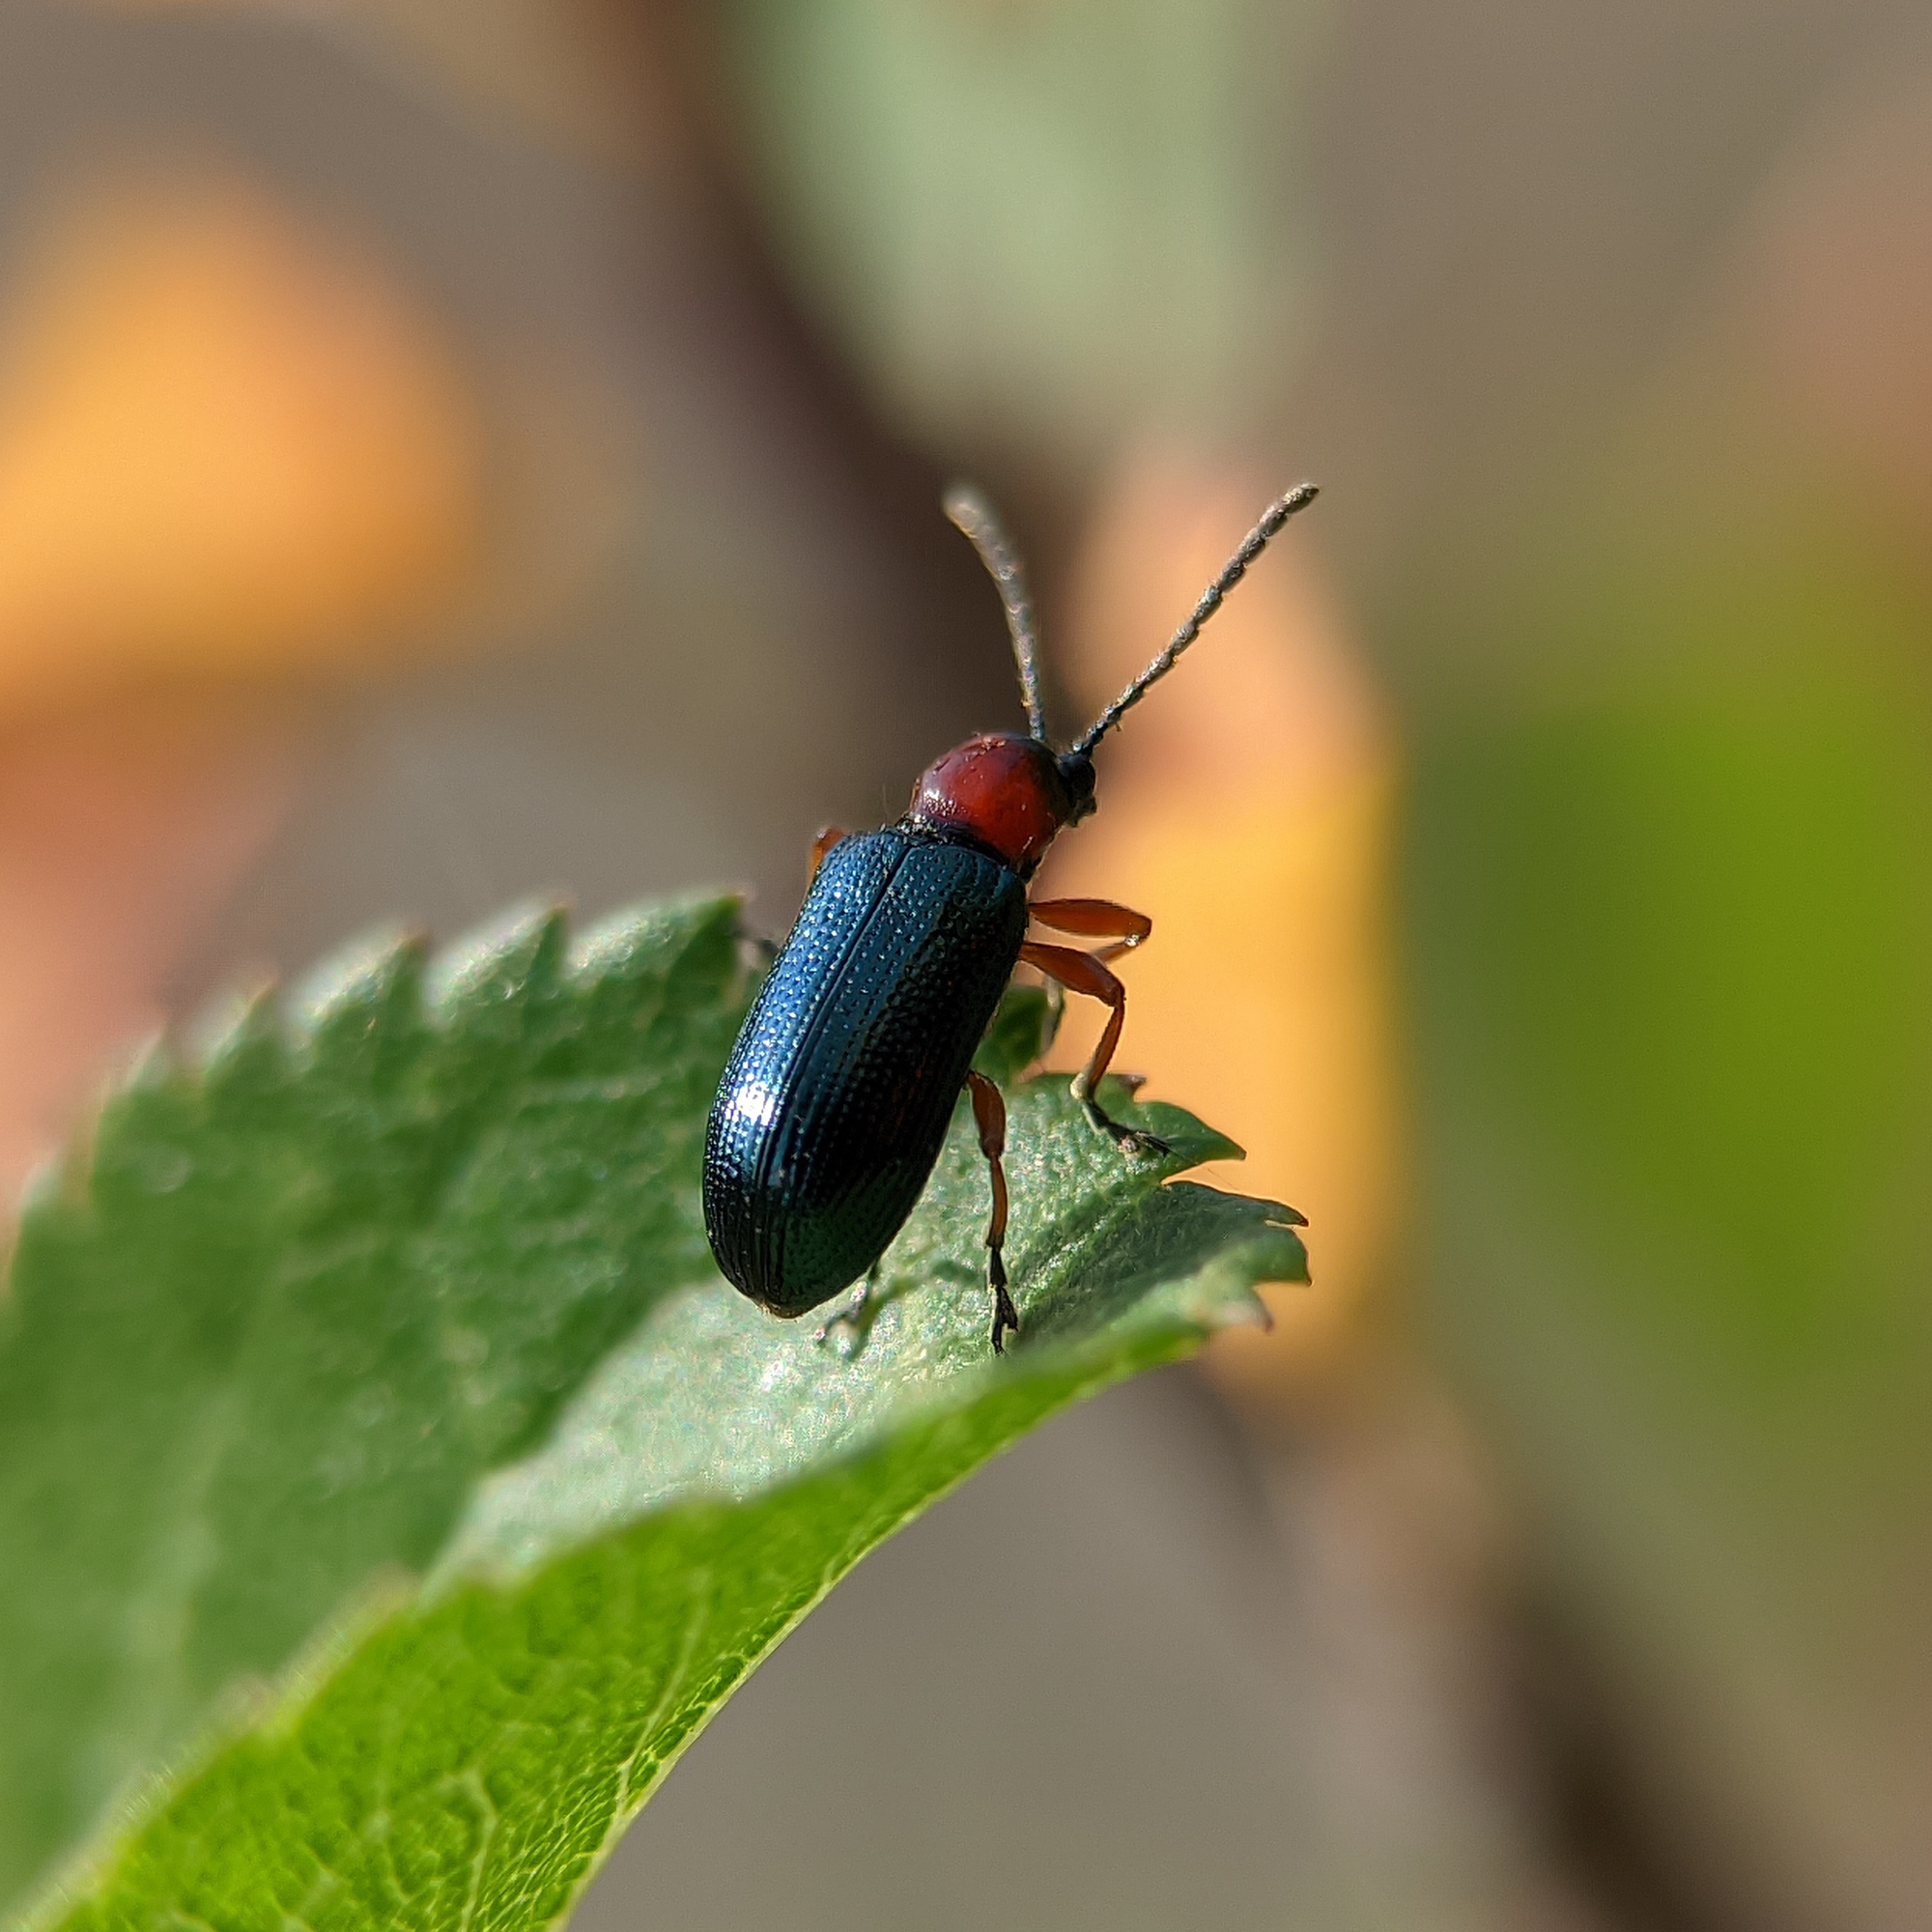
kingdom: Animalia
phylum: Arthropoda
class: Insecta
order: Coleoptera
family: Chrysomelidae
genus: Oulema
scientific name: Oulema
